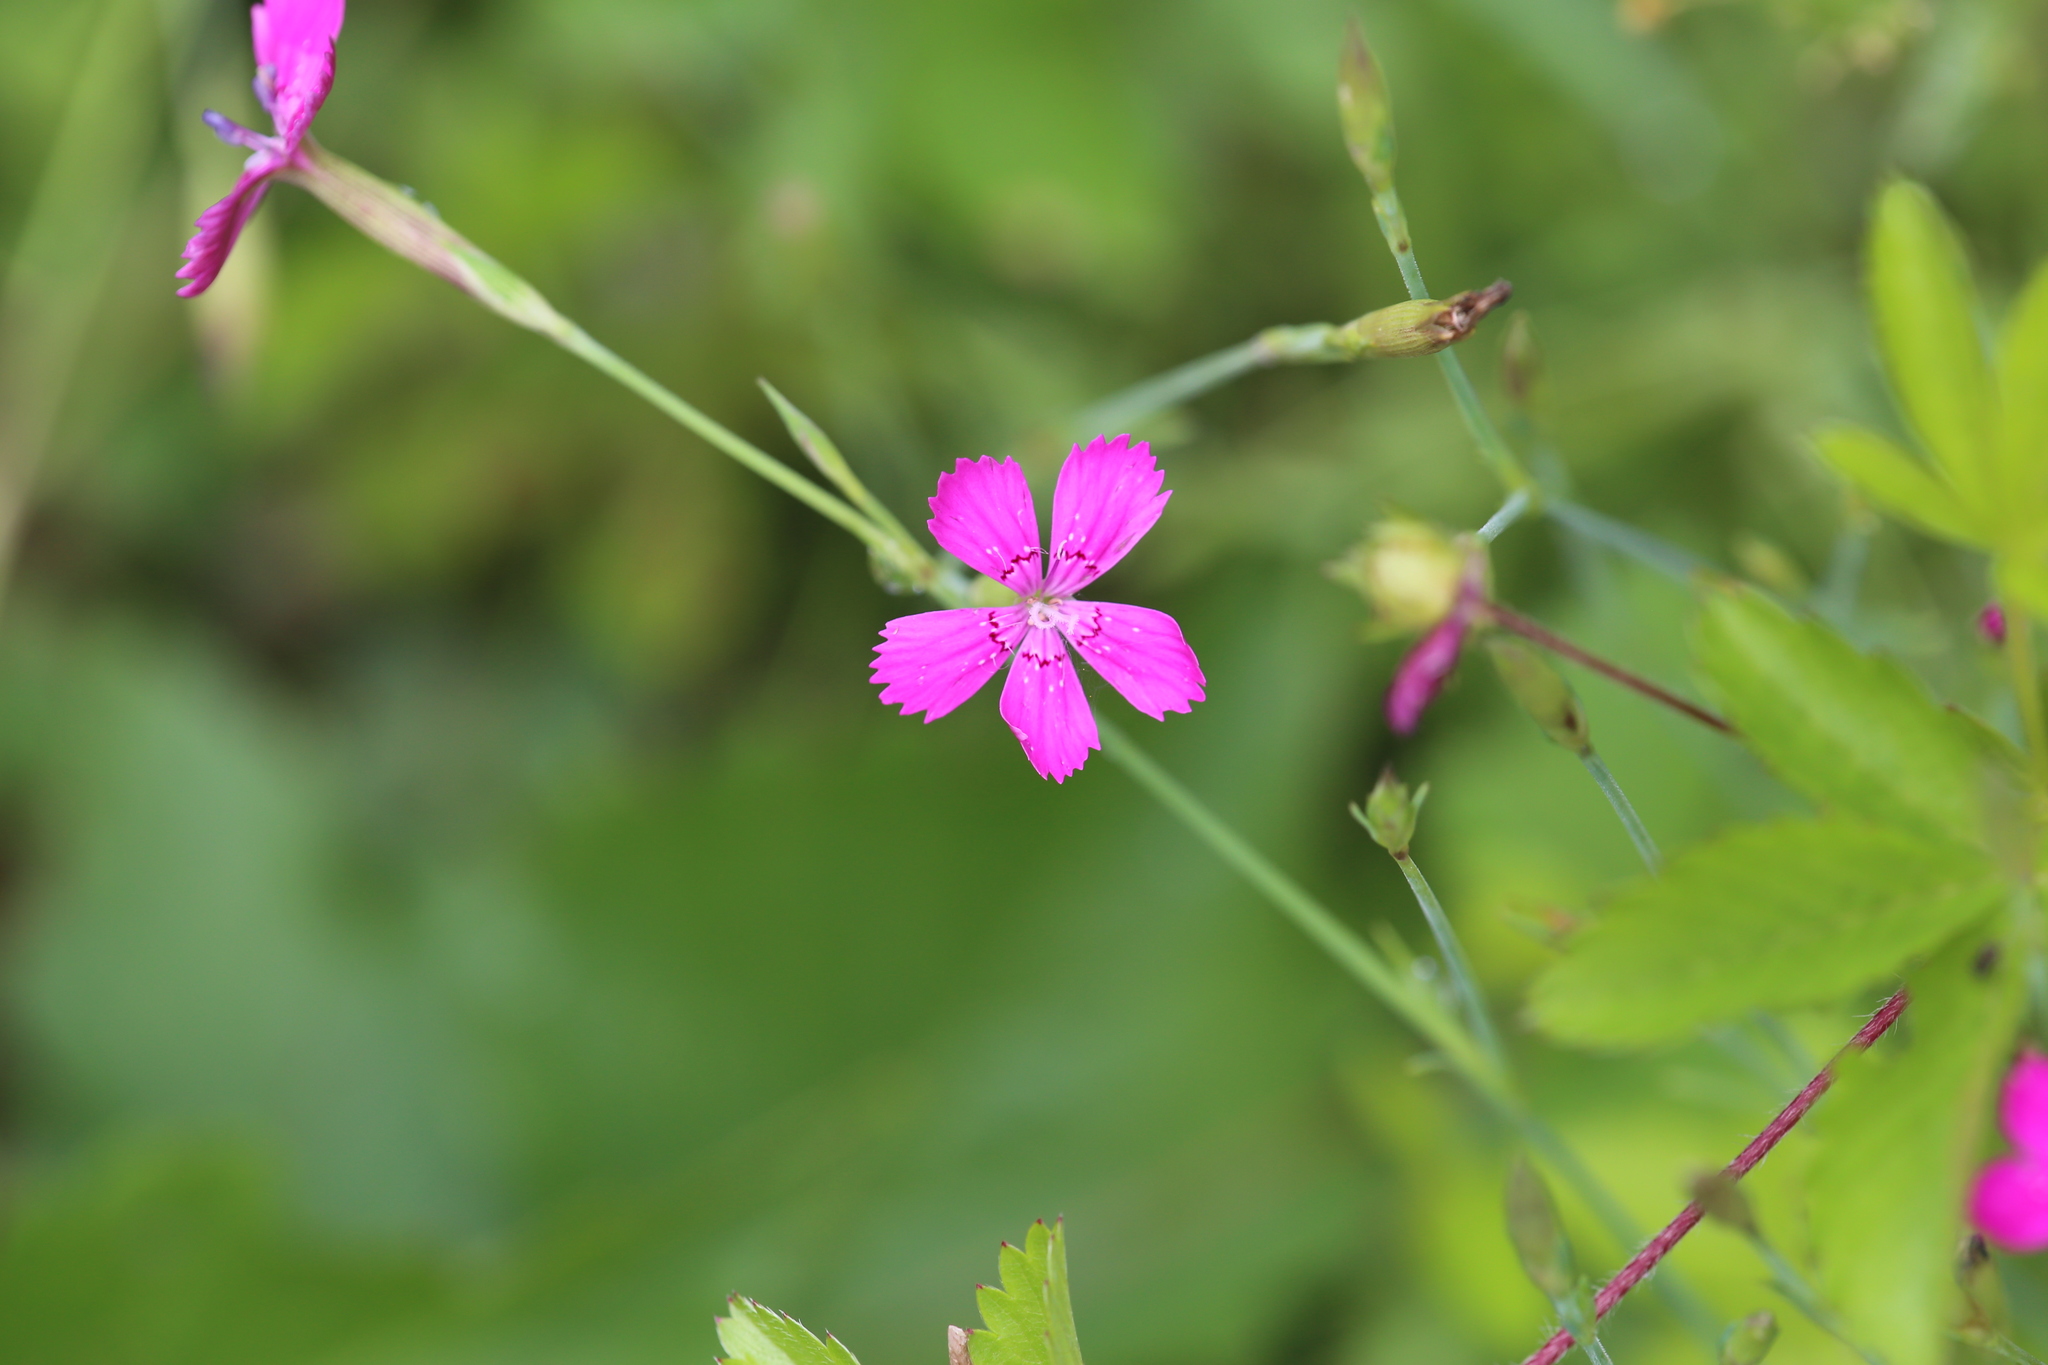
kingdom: Plantae
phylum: Tracheophyta
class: Magnoliopsida
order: Caryophyllales
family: Caryophyllaceae
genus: Dianthus
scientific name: Dianthus deltoides
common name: Maiden pink
